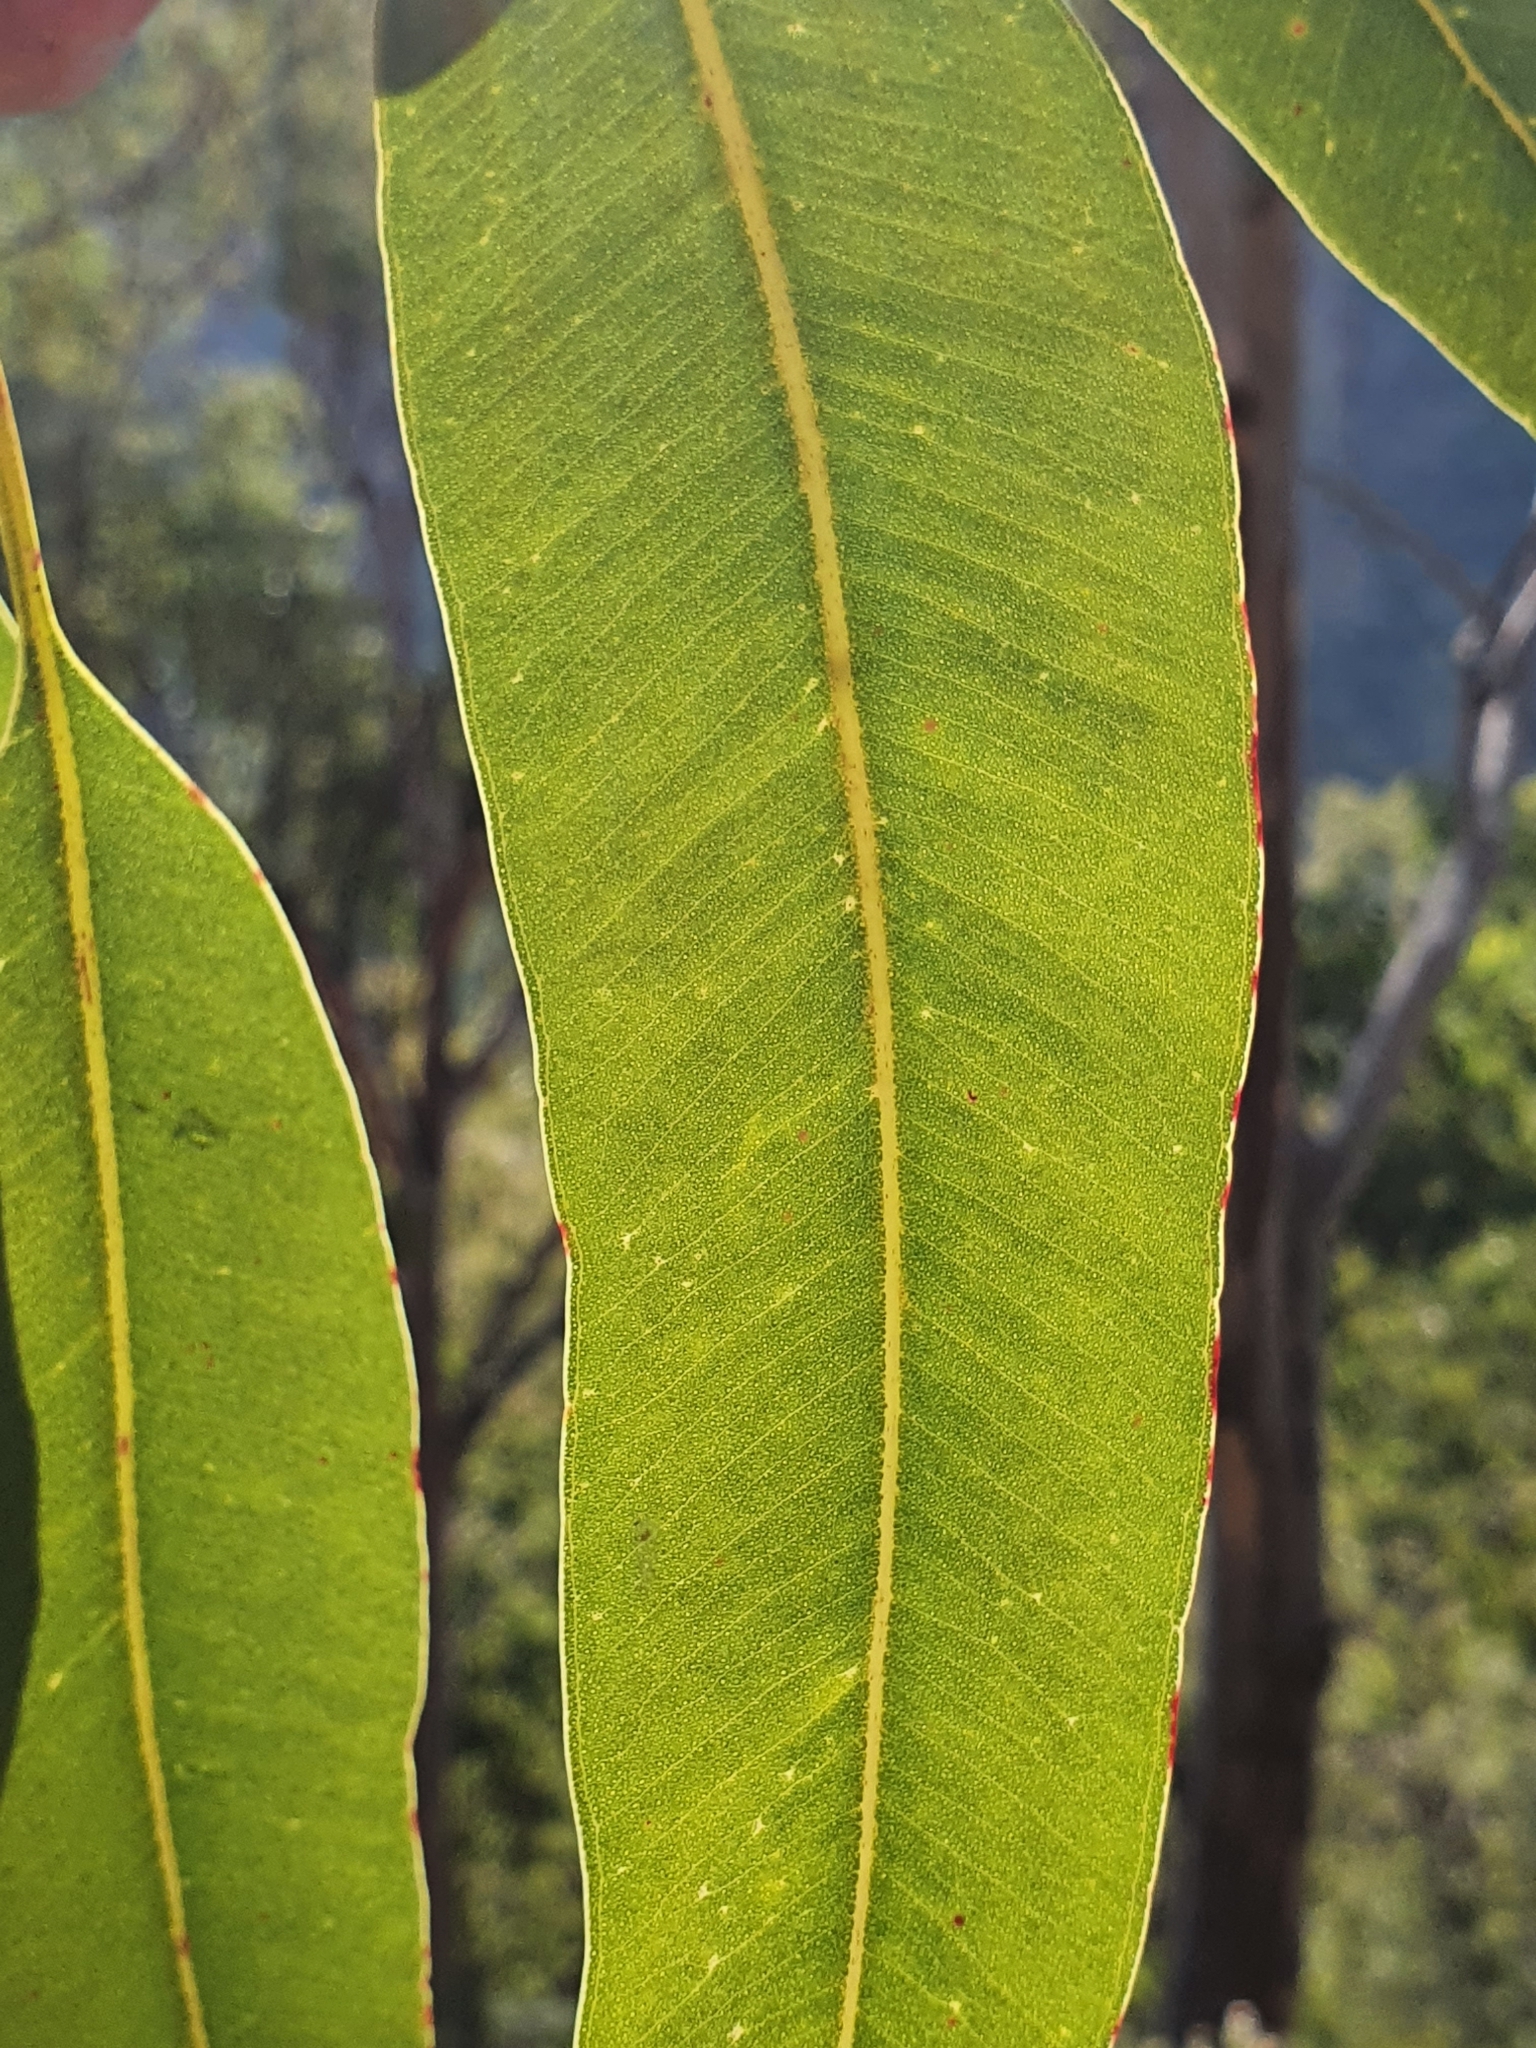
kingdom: Plantae
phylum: Tracheophyta
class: Magnoliopsida
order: Myrtales
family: Myrtaceae
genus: Corymbia
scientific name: Corymbia eximia
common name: Yellow bloodwood
